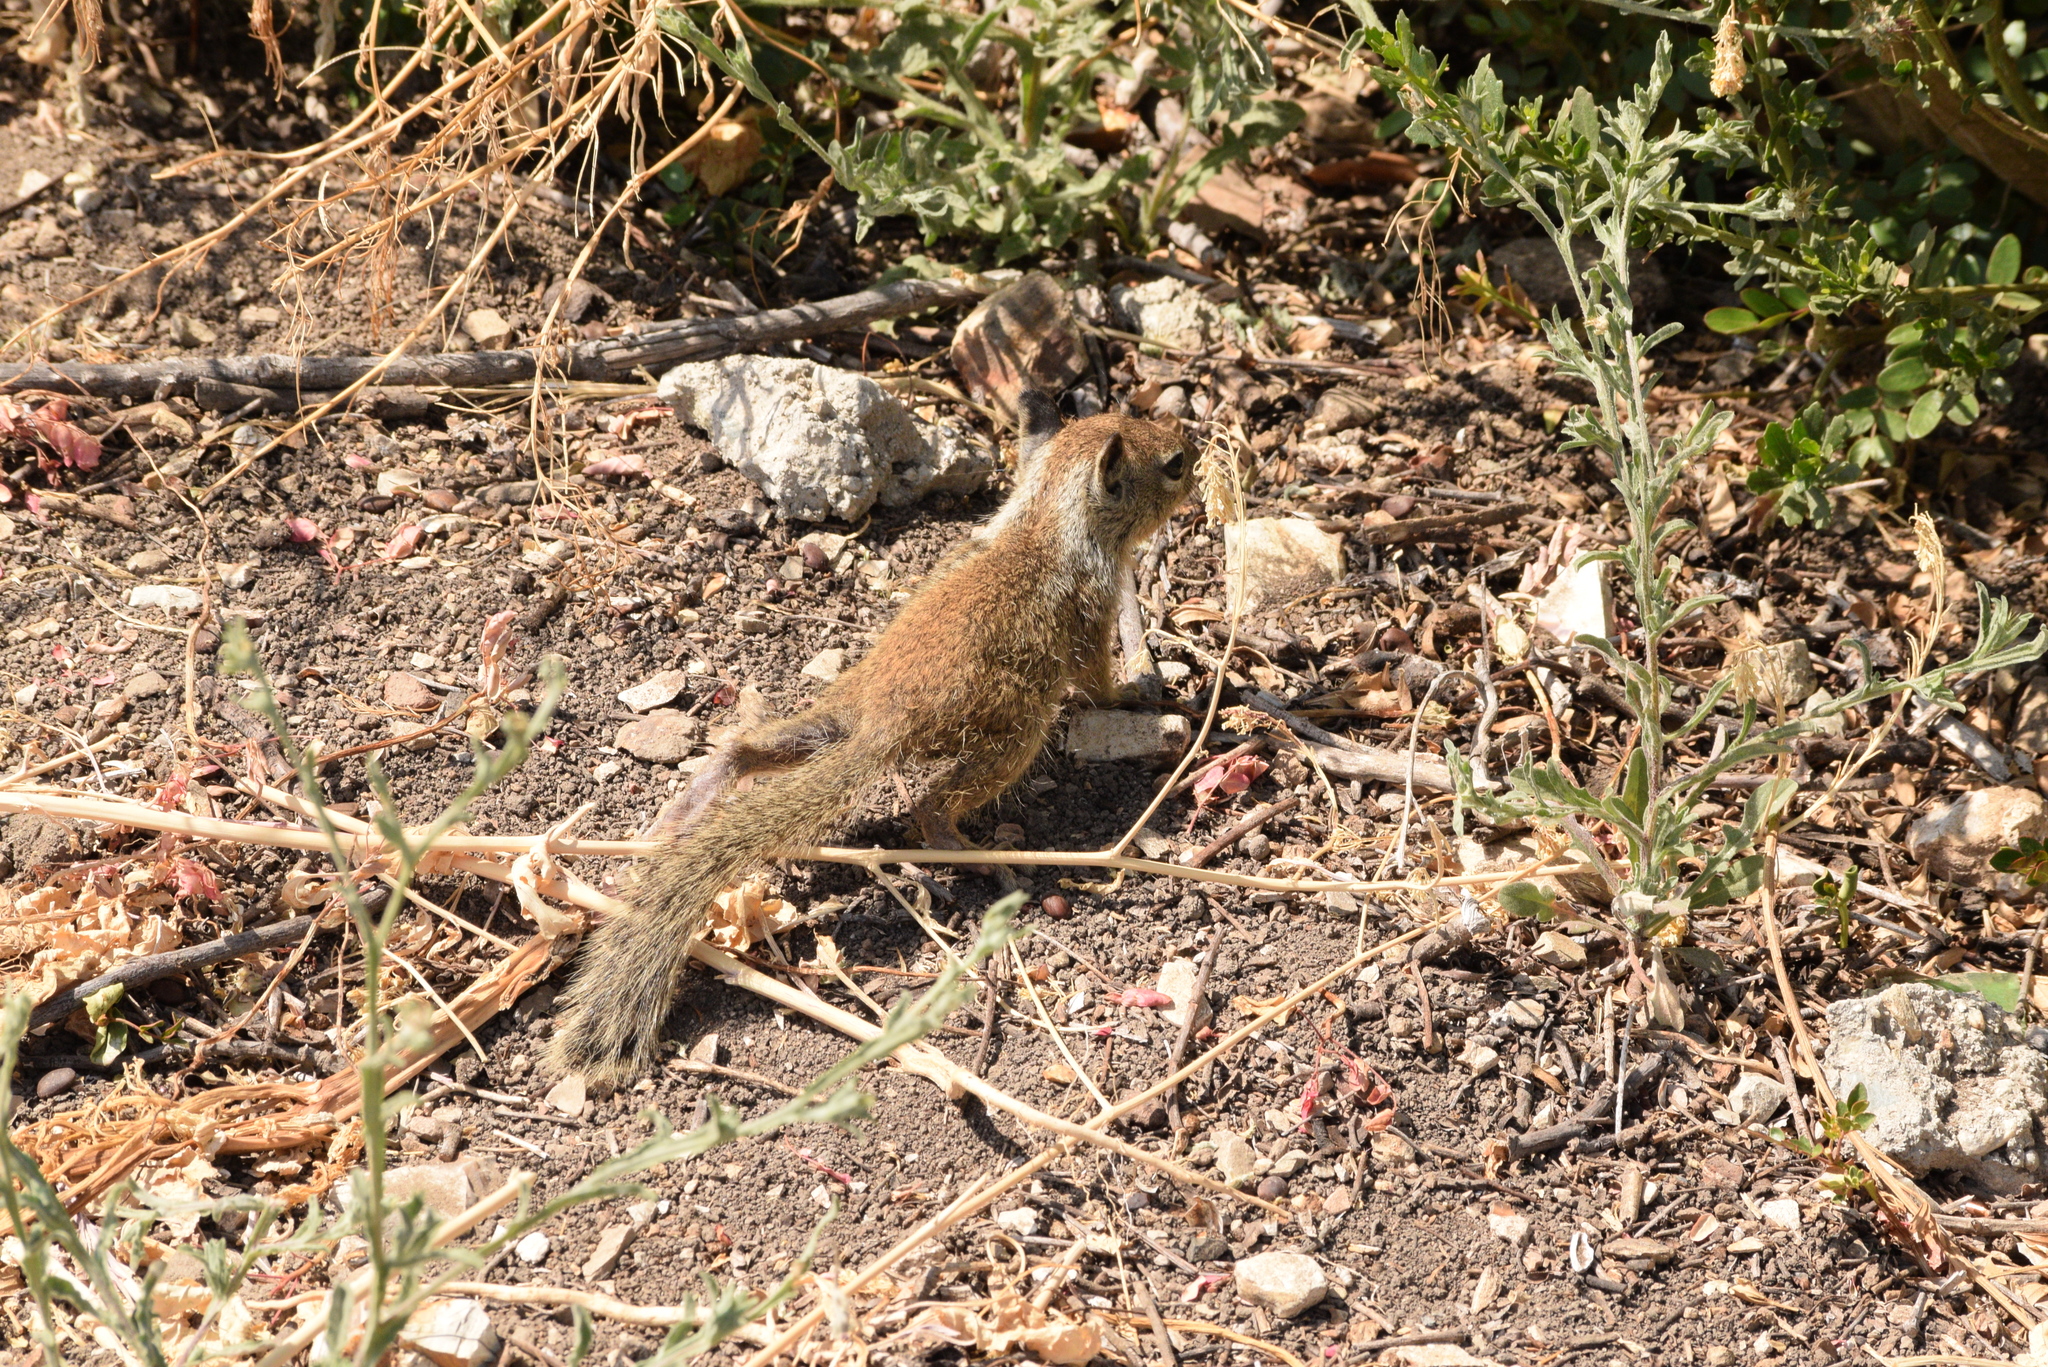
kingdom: Animalia
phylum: Chordata
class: Mammalia
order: Rodentia
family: Sciuridae
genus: Otospermophilus
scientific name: Otospermophilus beecheyi
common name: California ground squirrel
